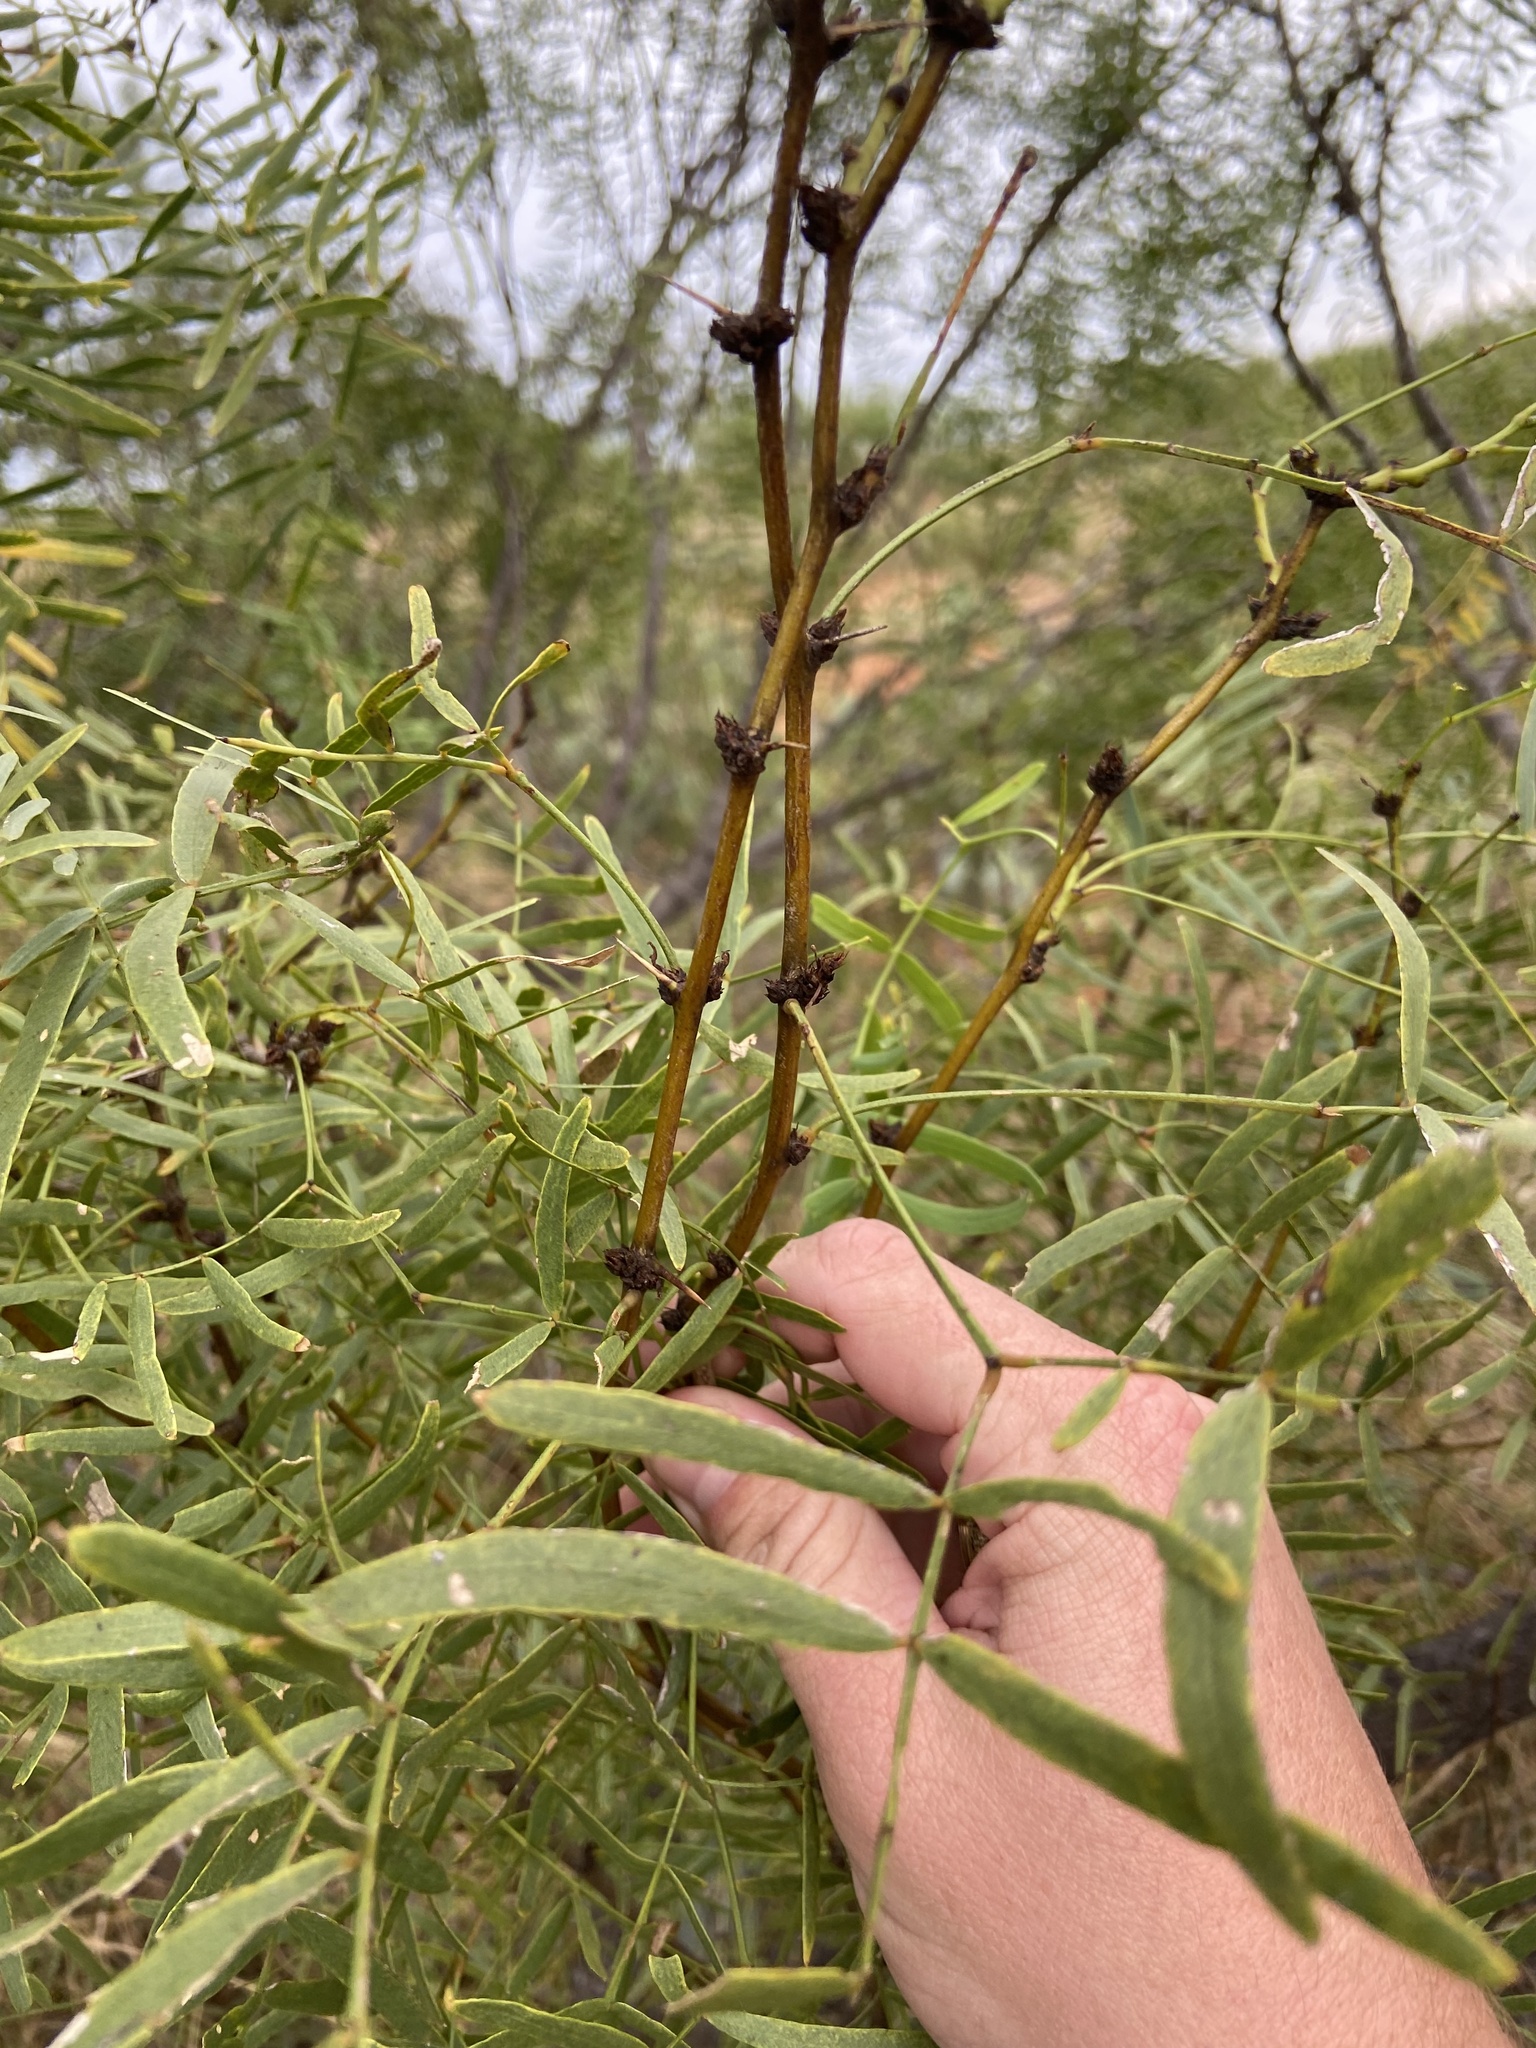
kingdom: Plantae
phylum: Tracheophyta
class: Magnoliopsida
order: Fabales
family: Fabaceae
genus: Prosopis
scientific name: Prosopis glandulosa
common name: Honey mesquite
